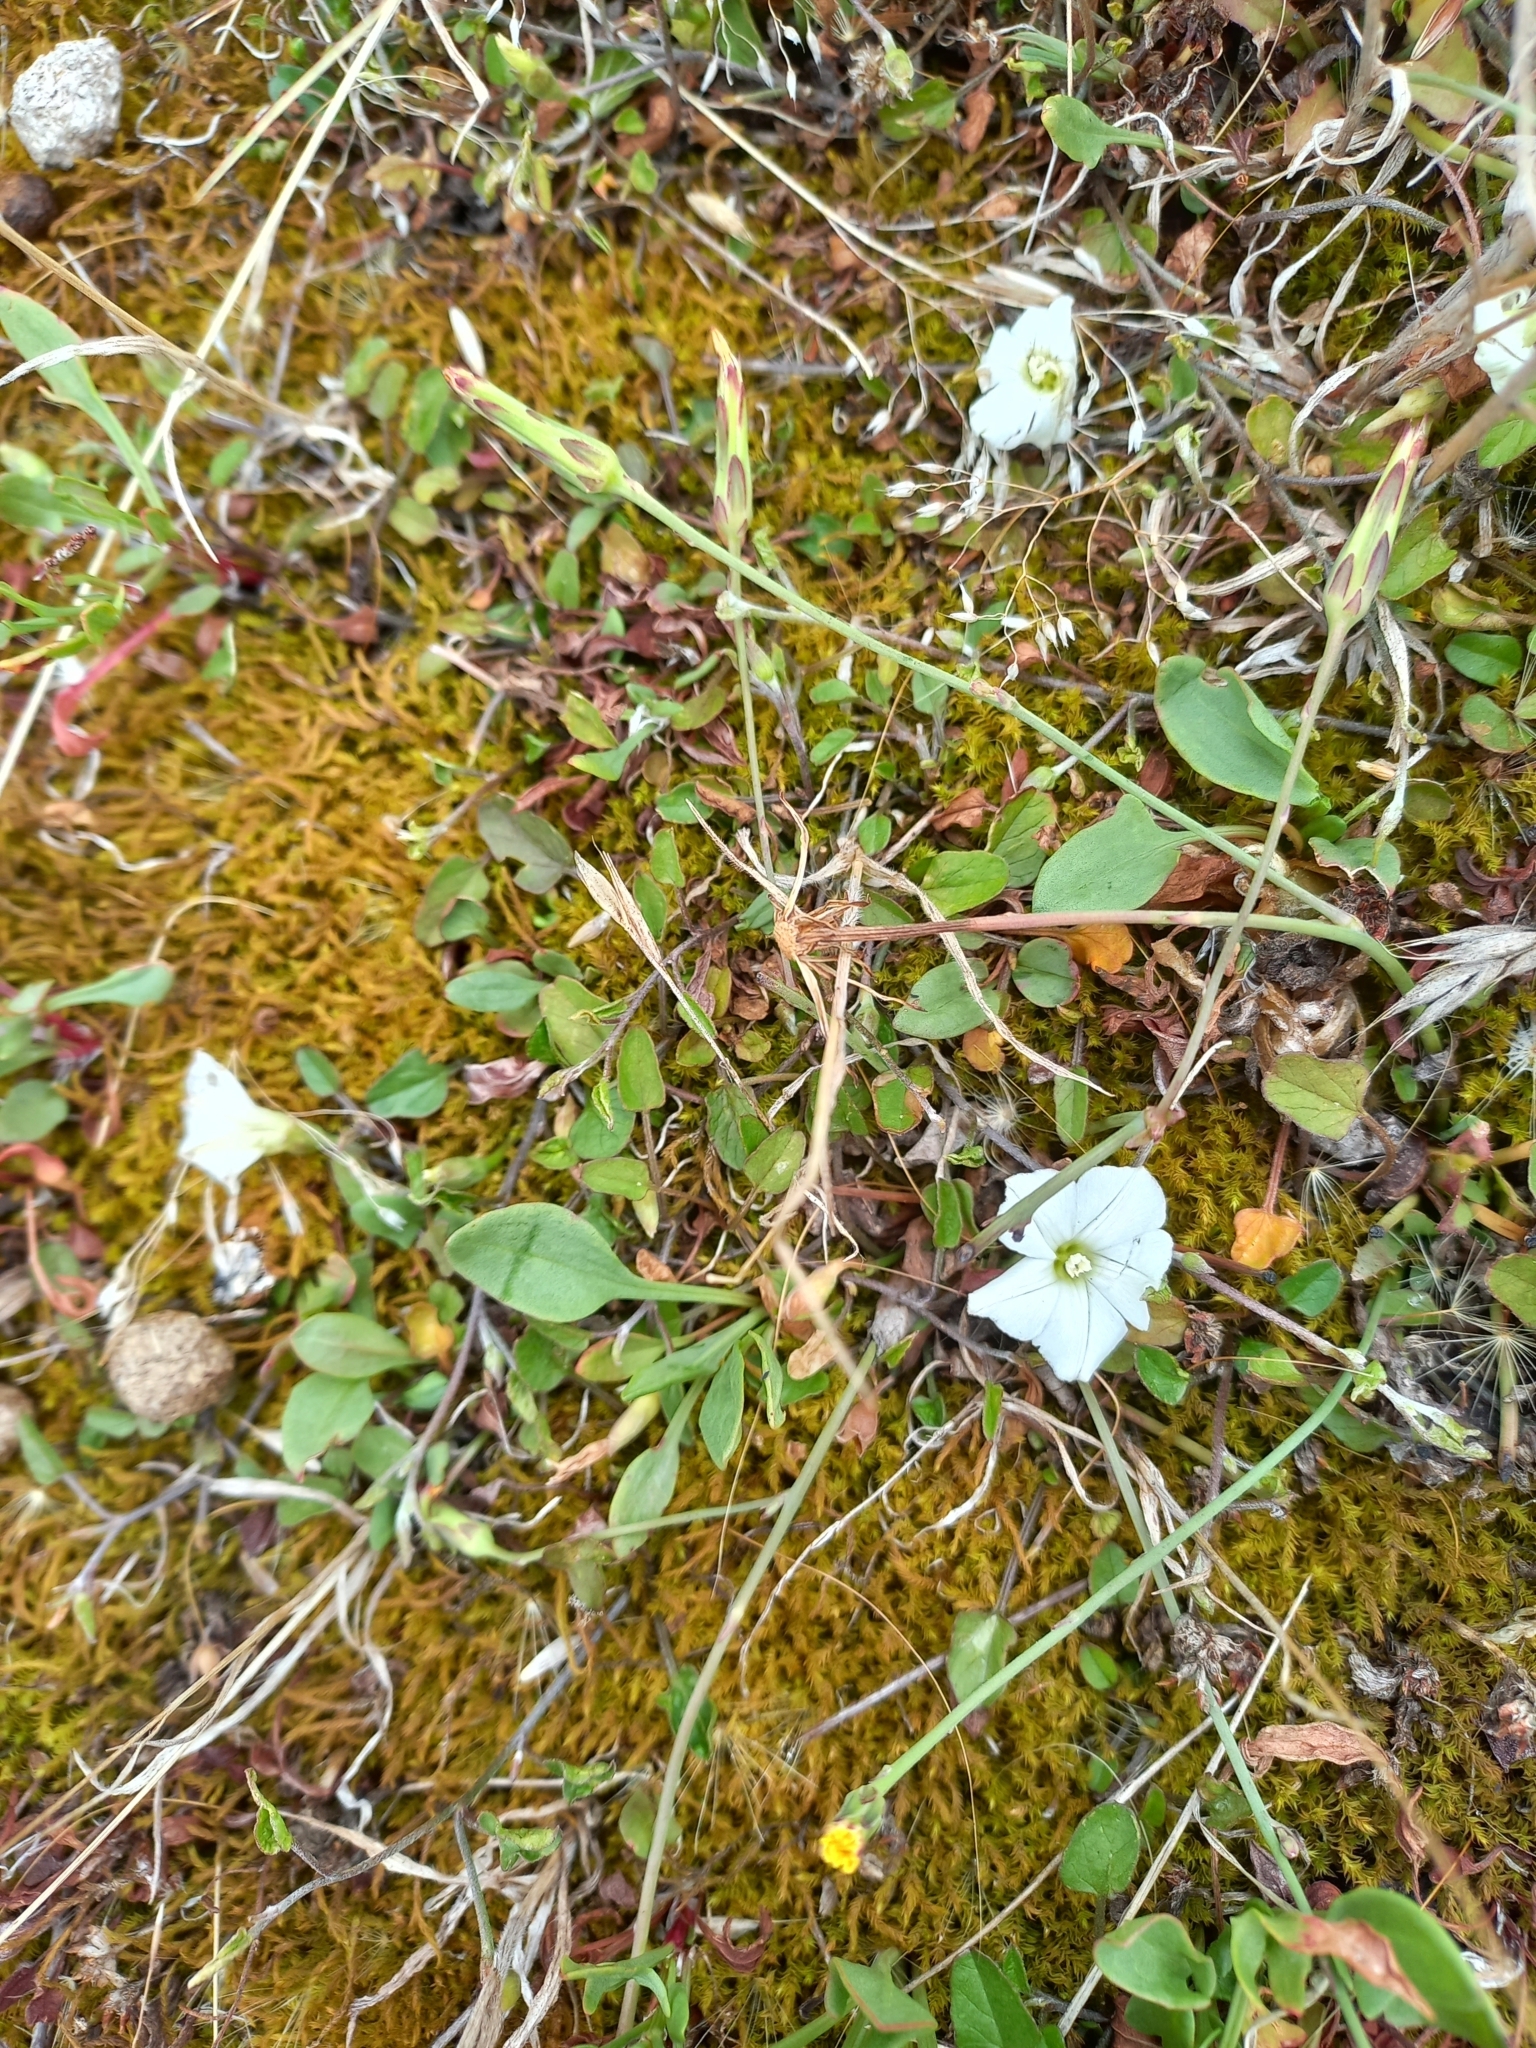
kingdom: Plantae
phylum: Tracheophyta
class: Magnoliopsida
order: Solanales
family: Convolvulaceae
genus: Convolvulus
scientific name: Convolvulus waitaha
